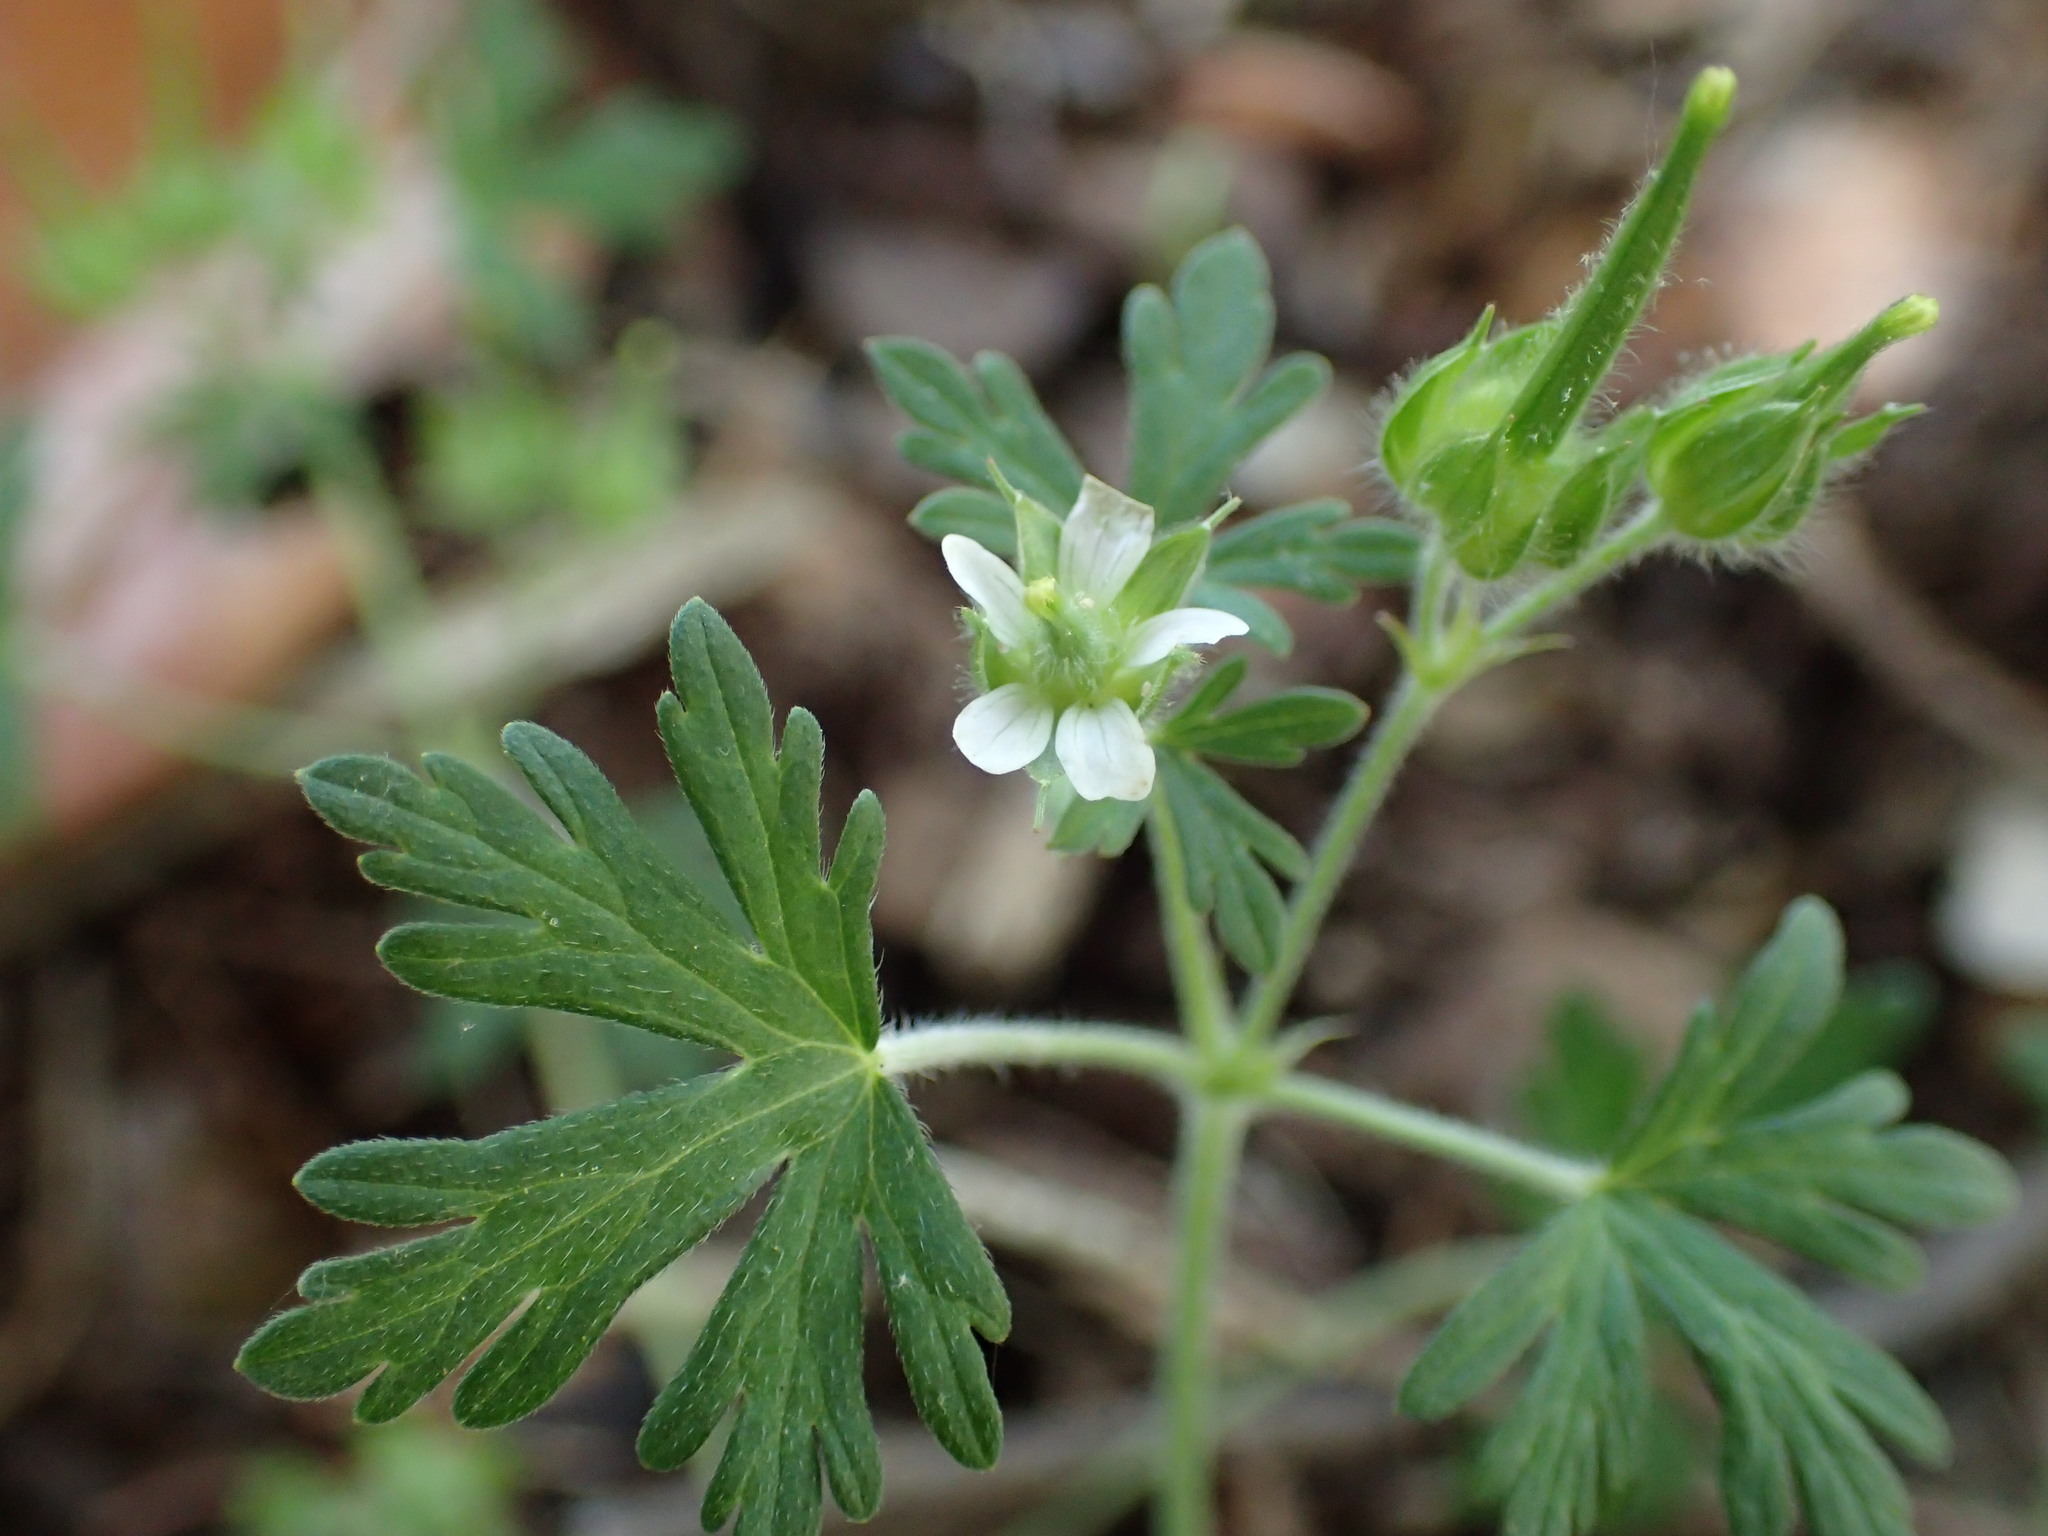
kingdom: Plantae
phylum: Tracheophyta
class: Magnoliopsida
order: Geraniales
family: Geraniaceae
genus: Geranium
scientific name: Geranium carolinianum
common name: Carolina crane's-bill
